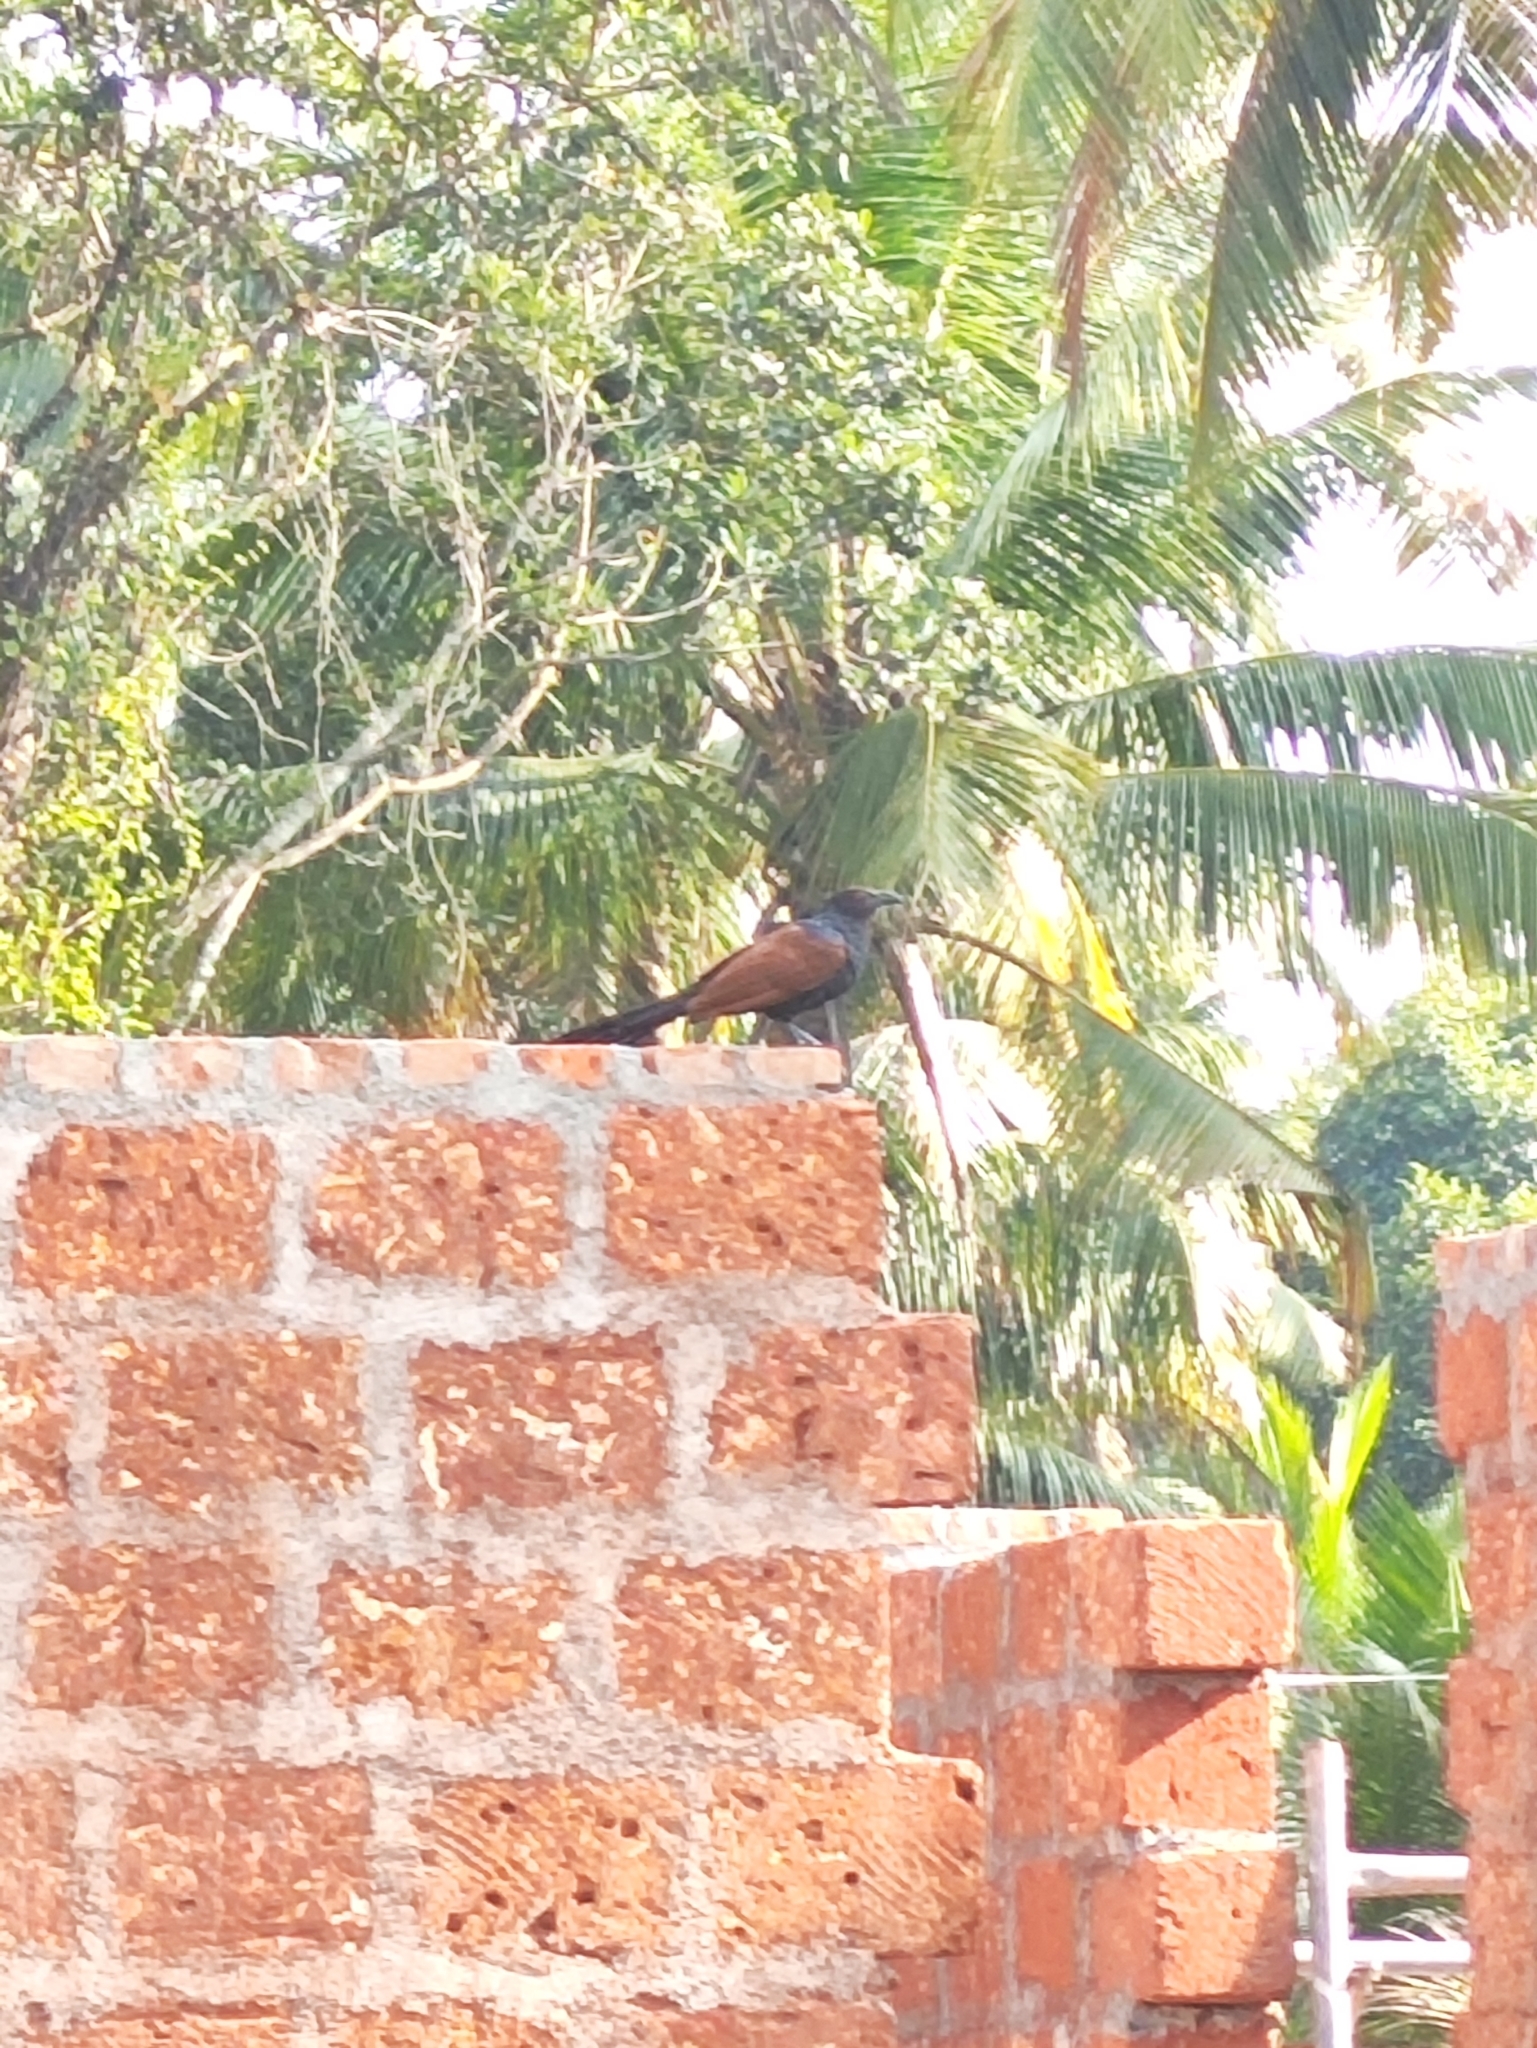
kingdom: Animalia
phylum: Chordata
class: Aves
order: Cuculiformes
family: Cuculidae
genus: Centropus
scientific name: Centropus sinensis
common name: Greater coucal
